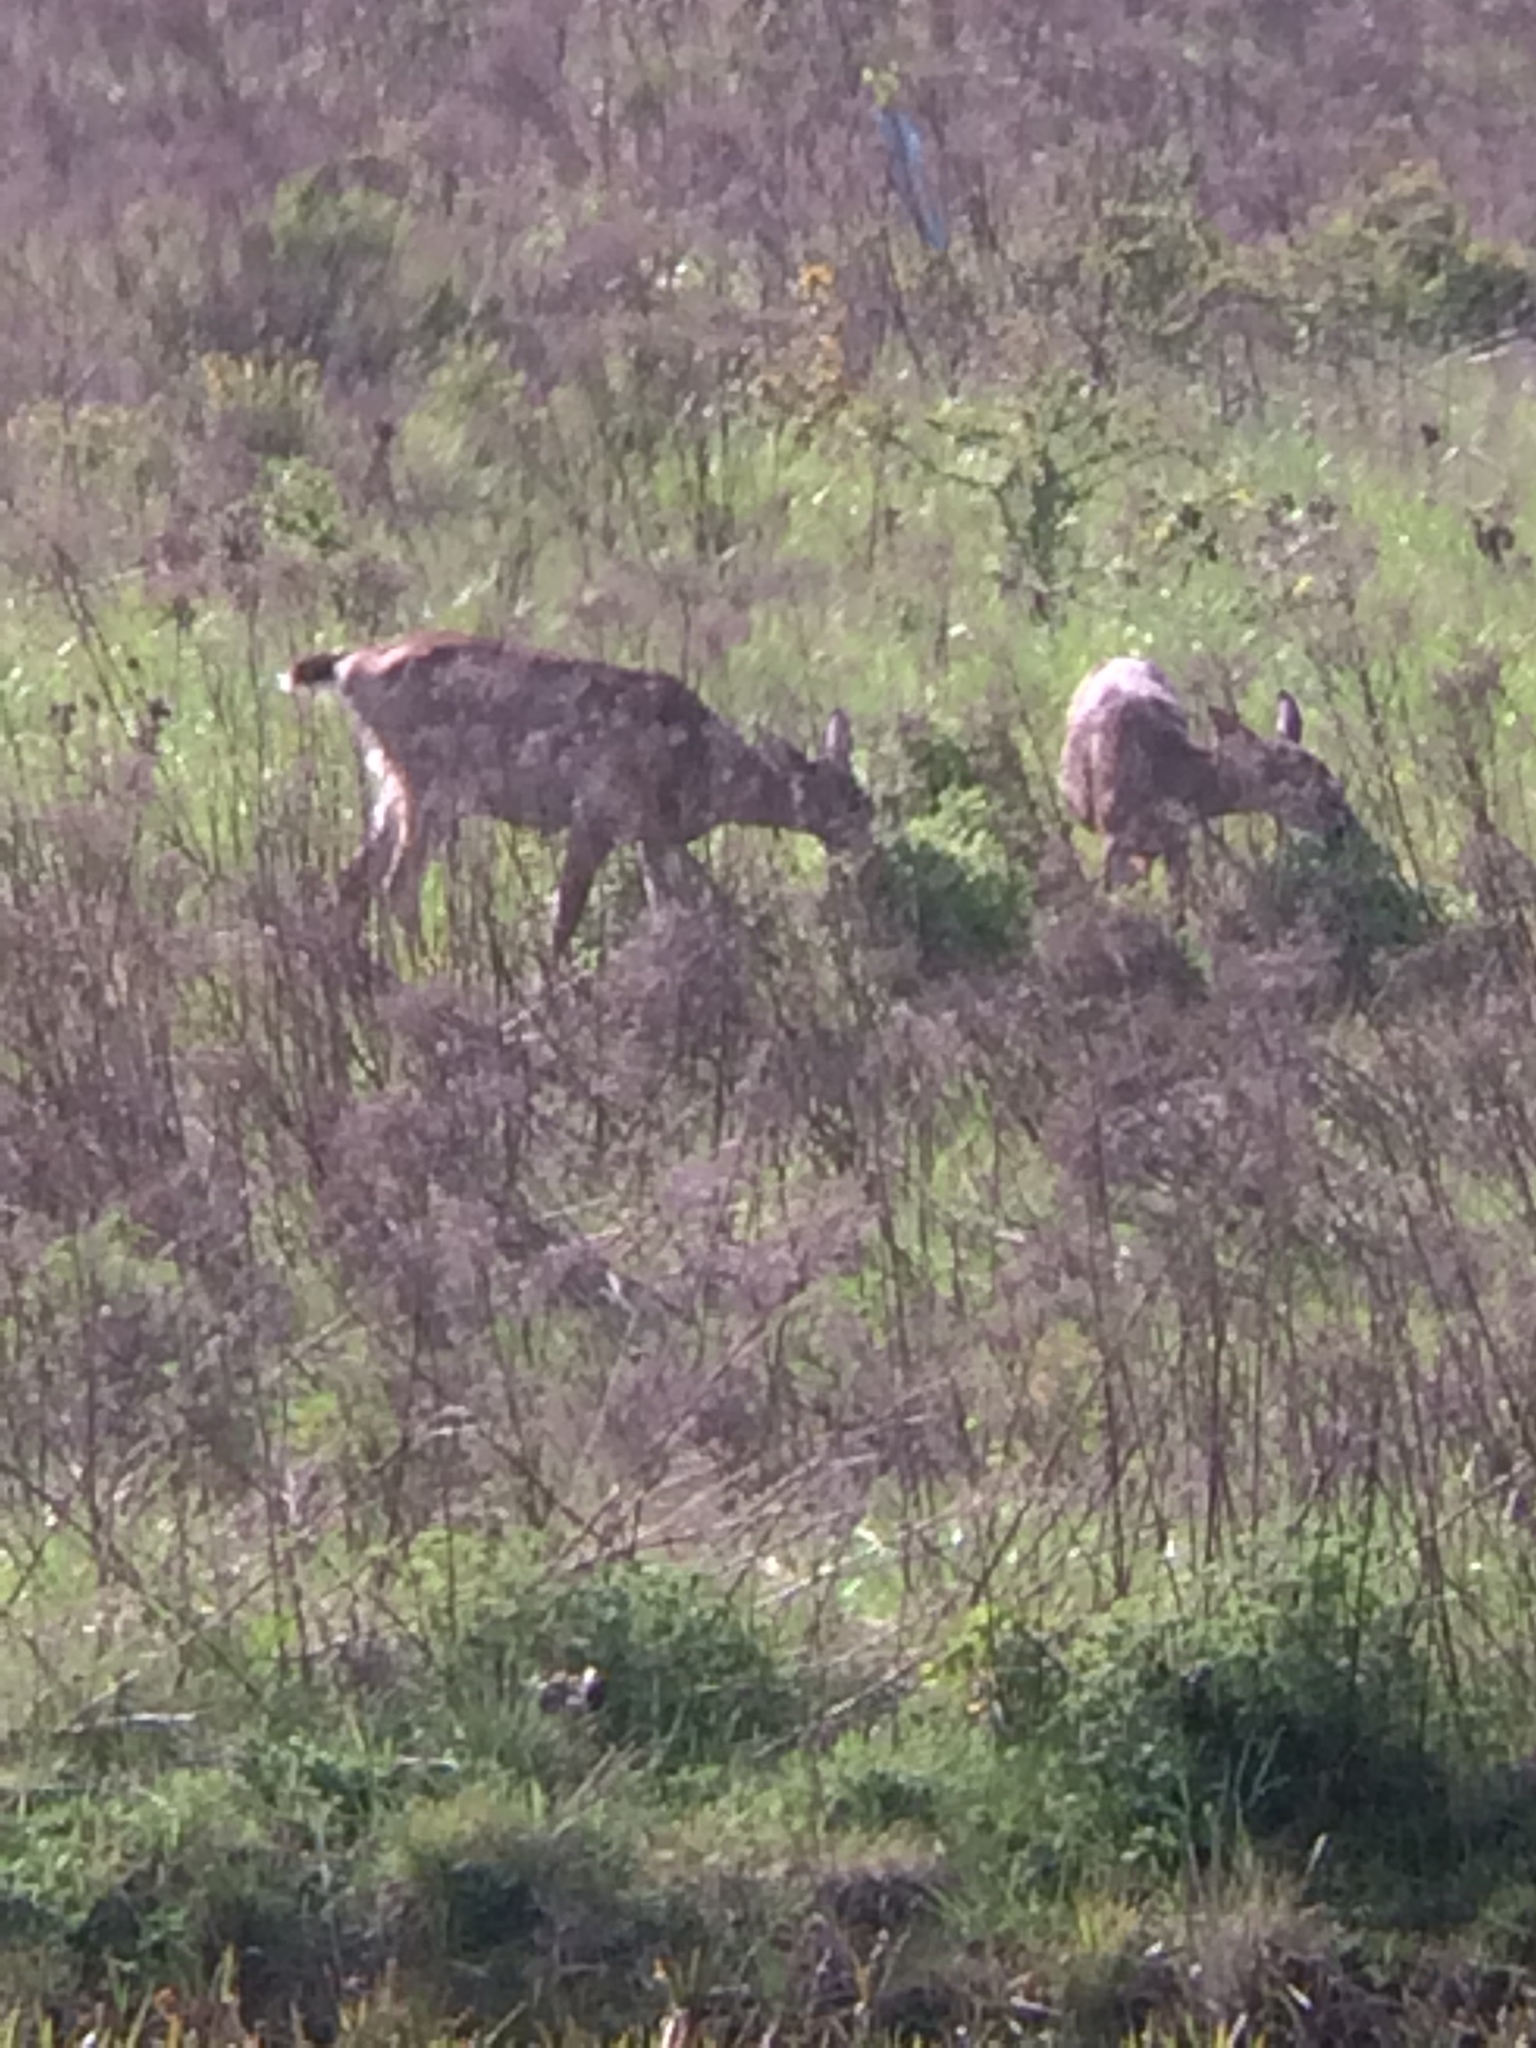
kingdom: Animalia
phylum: Chordata
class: Mammalia
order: Artiodactyla
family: Cervidae
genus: Odocoileus
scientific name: Odocoileus hemionus
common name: Mule deer
